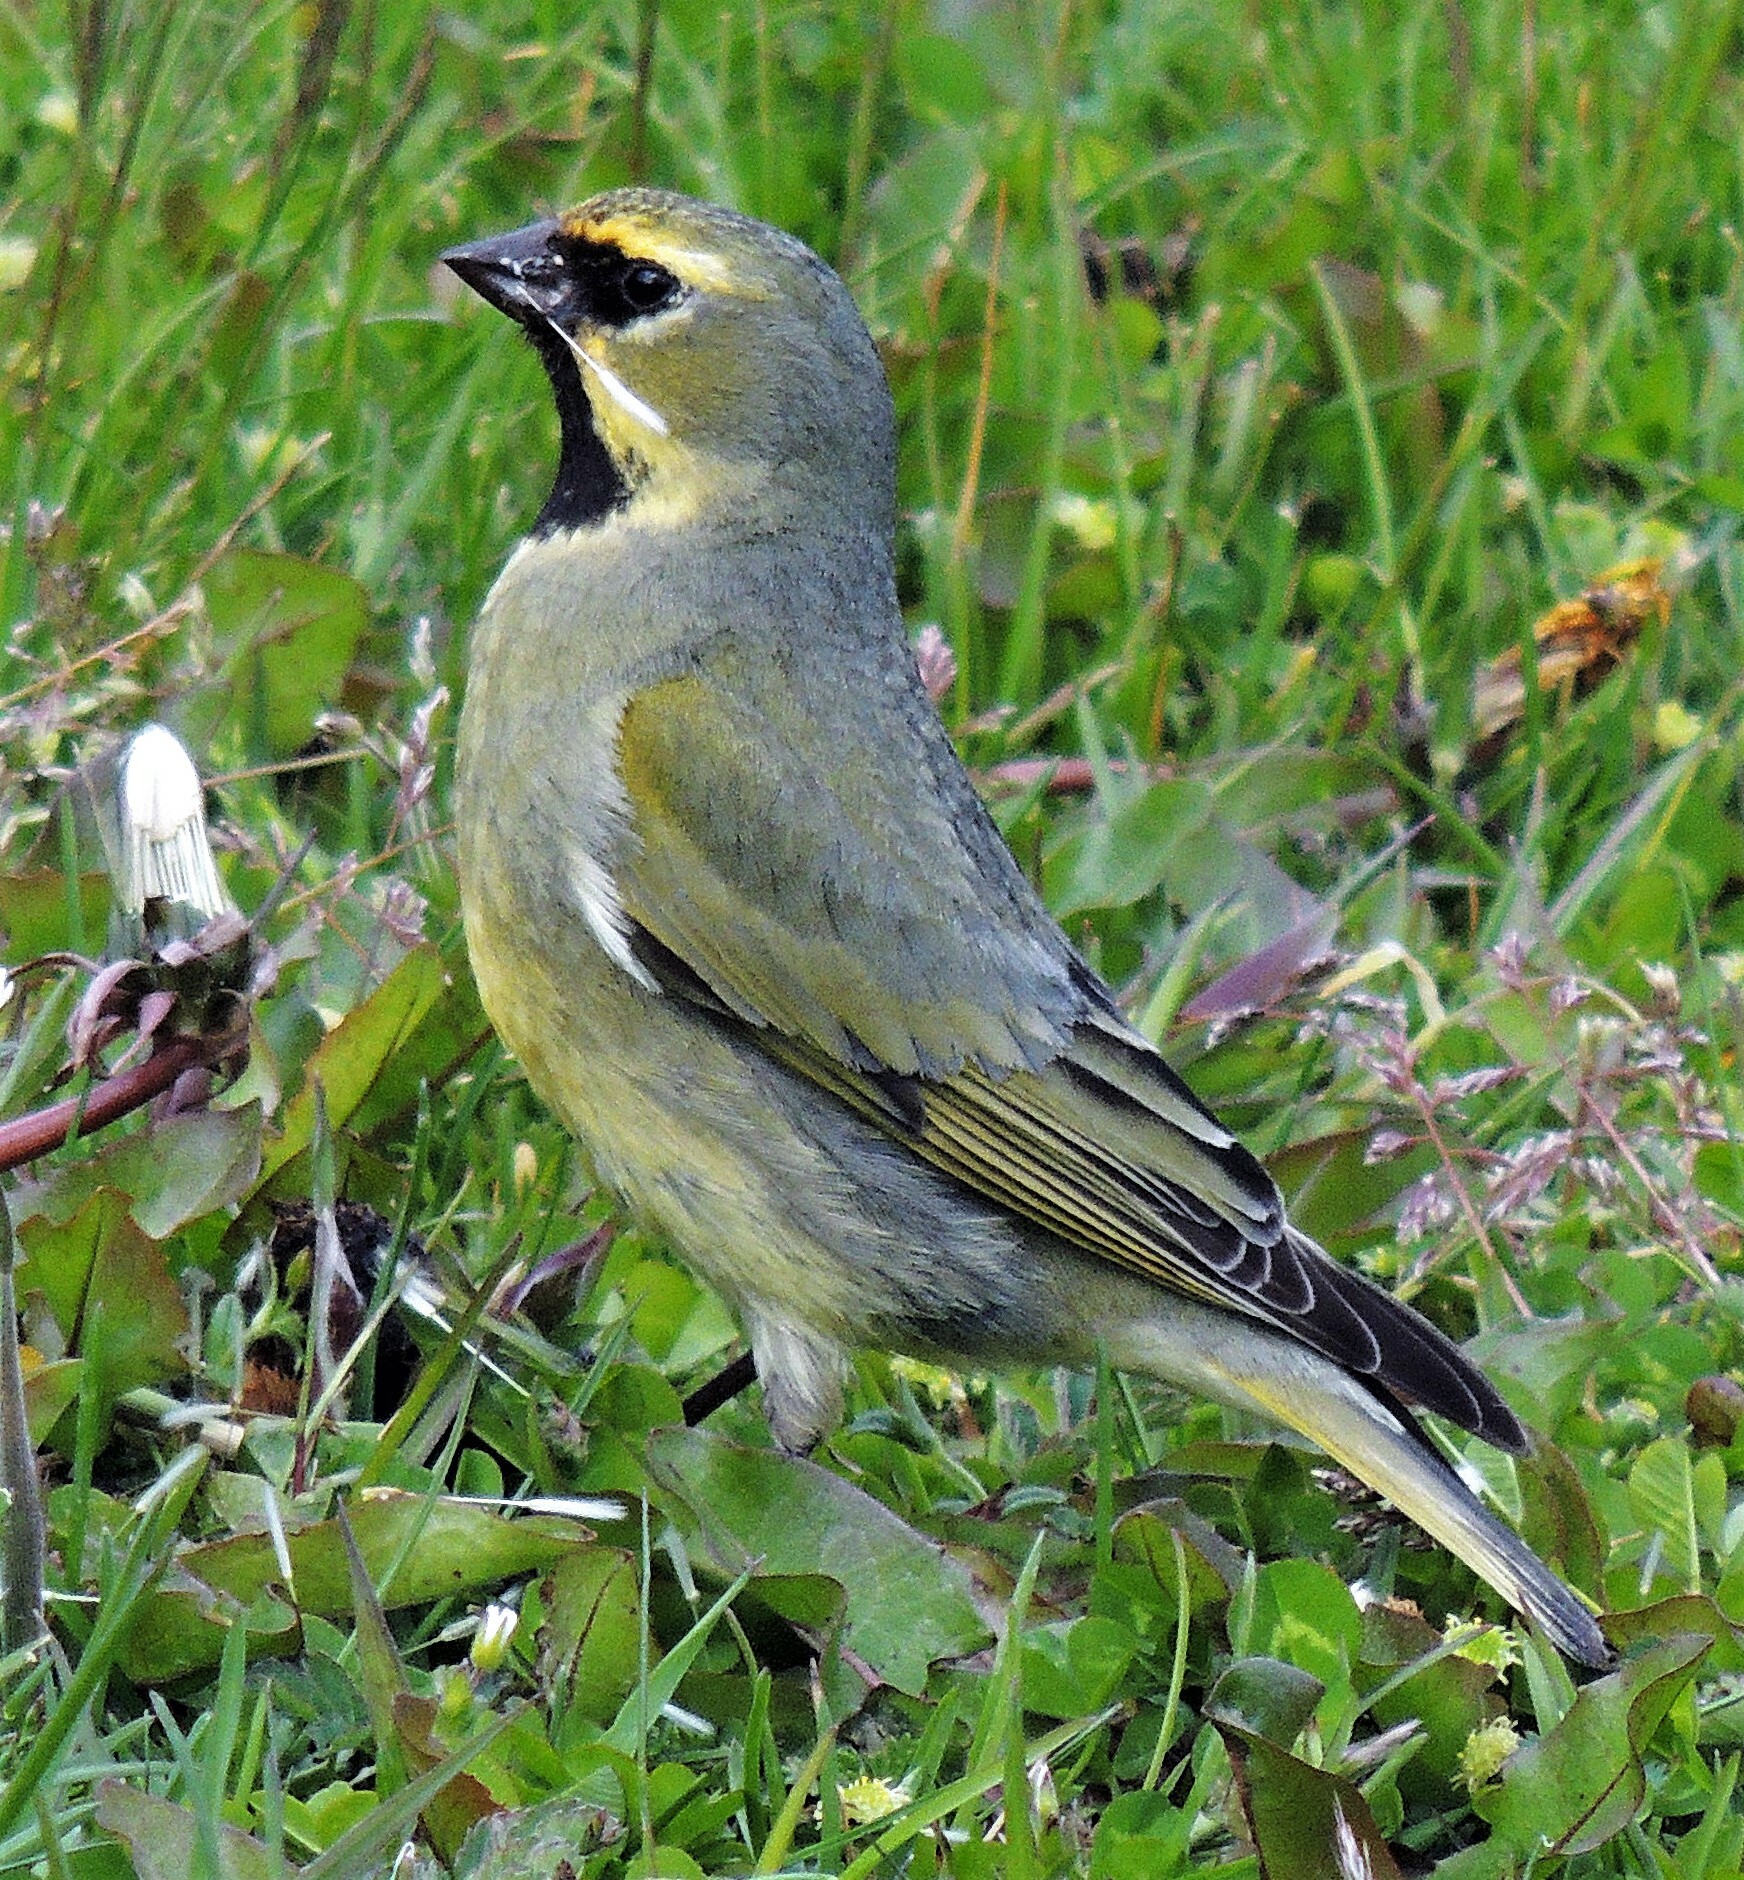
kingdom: Animalia
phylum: Chordata
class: Aves
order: Passeriformes
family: Thraupidae
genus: Melanodera
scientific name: Melanodera xanthogramma
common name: Yellow-bridled finch
